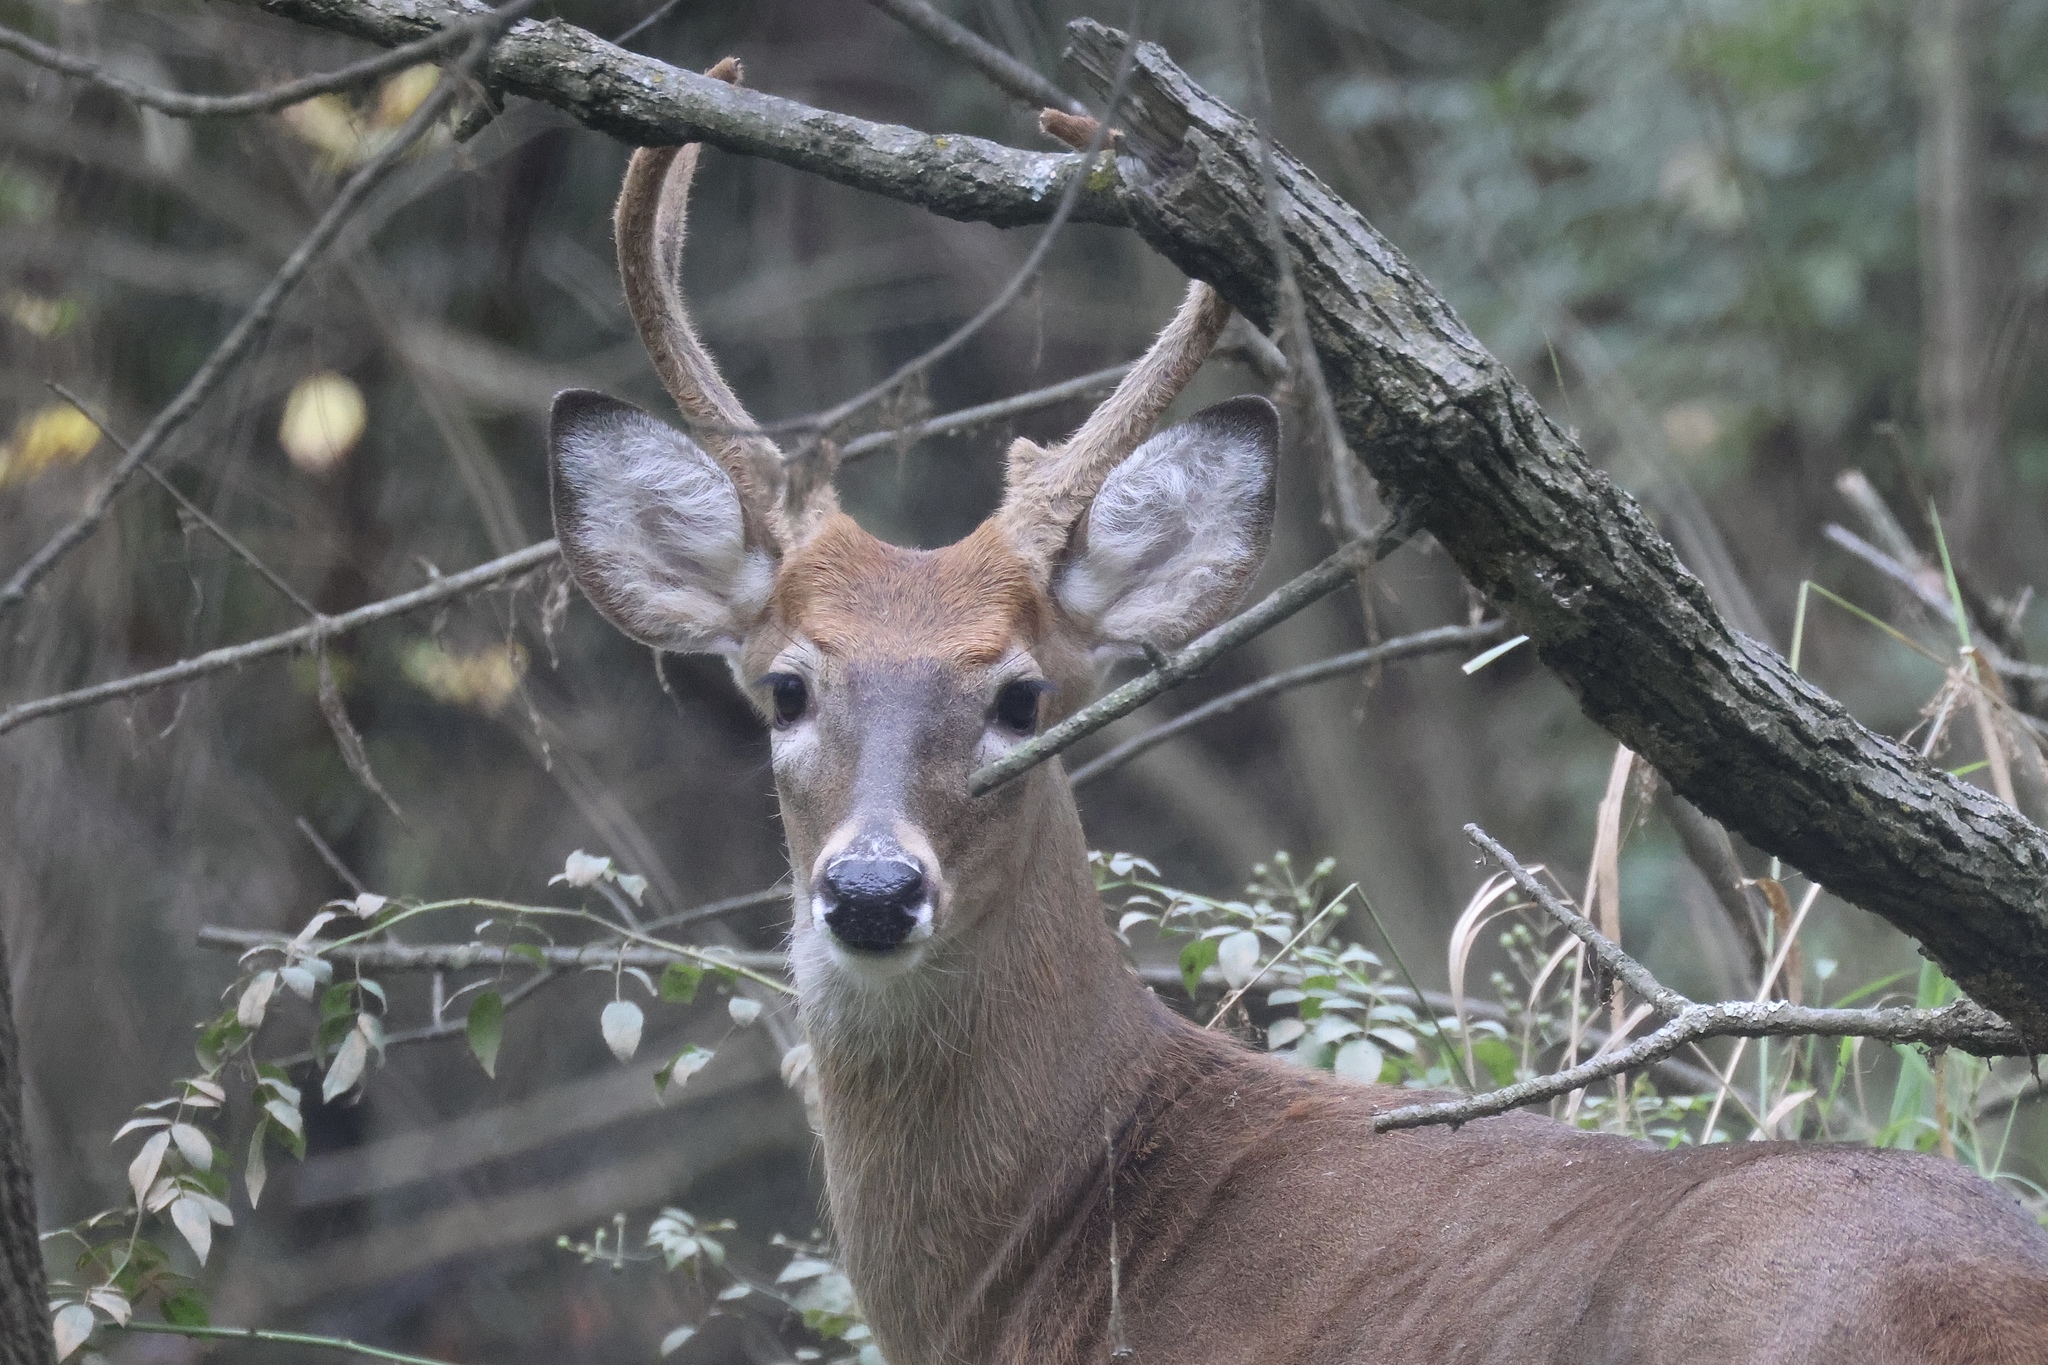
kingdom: Animalia
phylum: Chordata
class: Mammalia
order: Artiodactyla
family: Cervidae
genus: Odocoileus
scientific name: Odocoileus virginianus
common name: White-tailed deer
